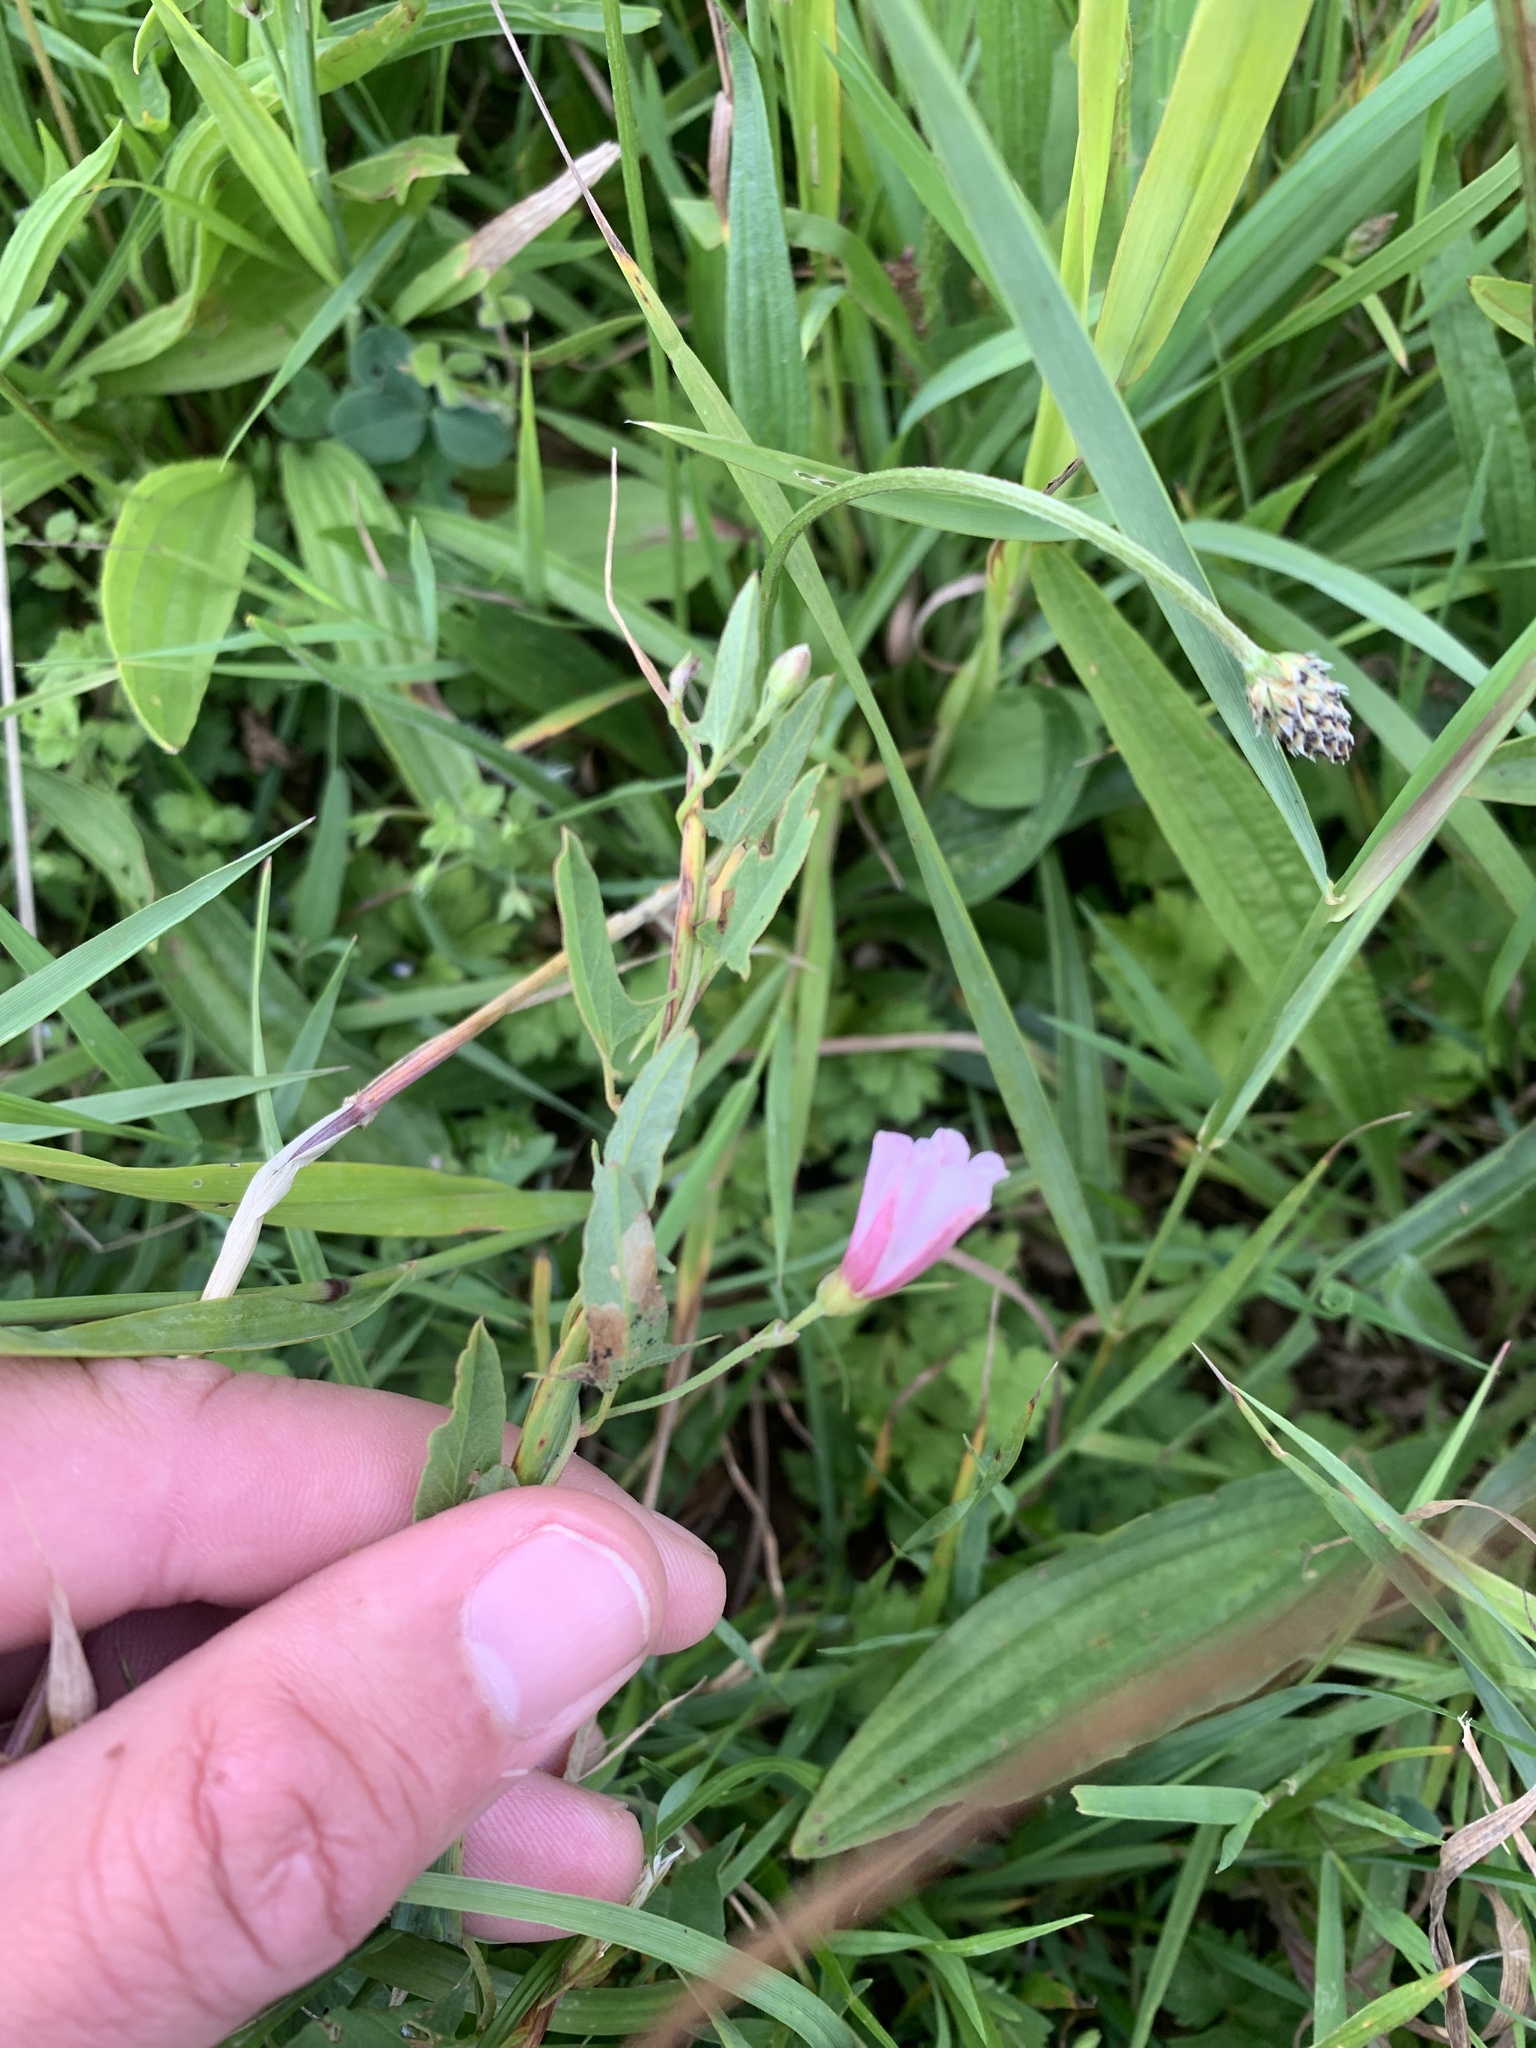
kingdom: Plantae
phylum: Tracheophyta
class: Magnoliopsida
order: Solanales
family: Convolvulaceae
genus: Convolvulus
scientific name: Convolvulus arvensis
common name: Field bindweed
